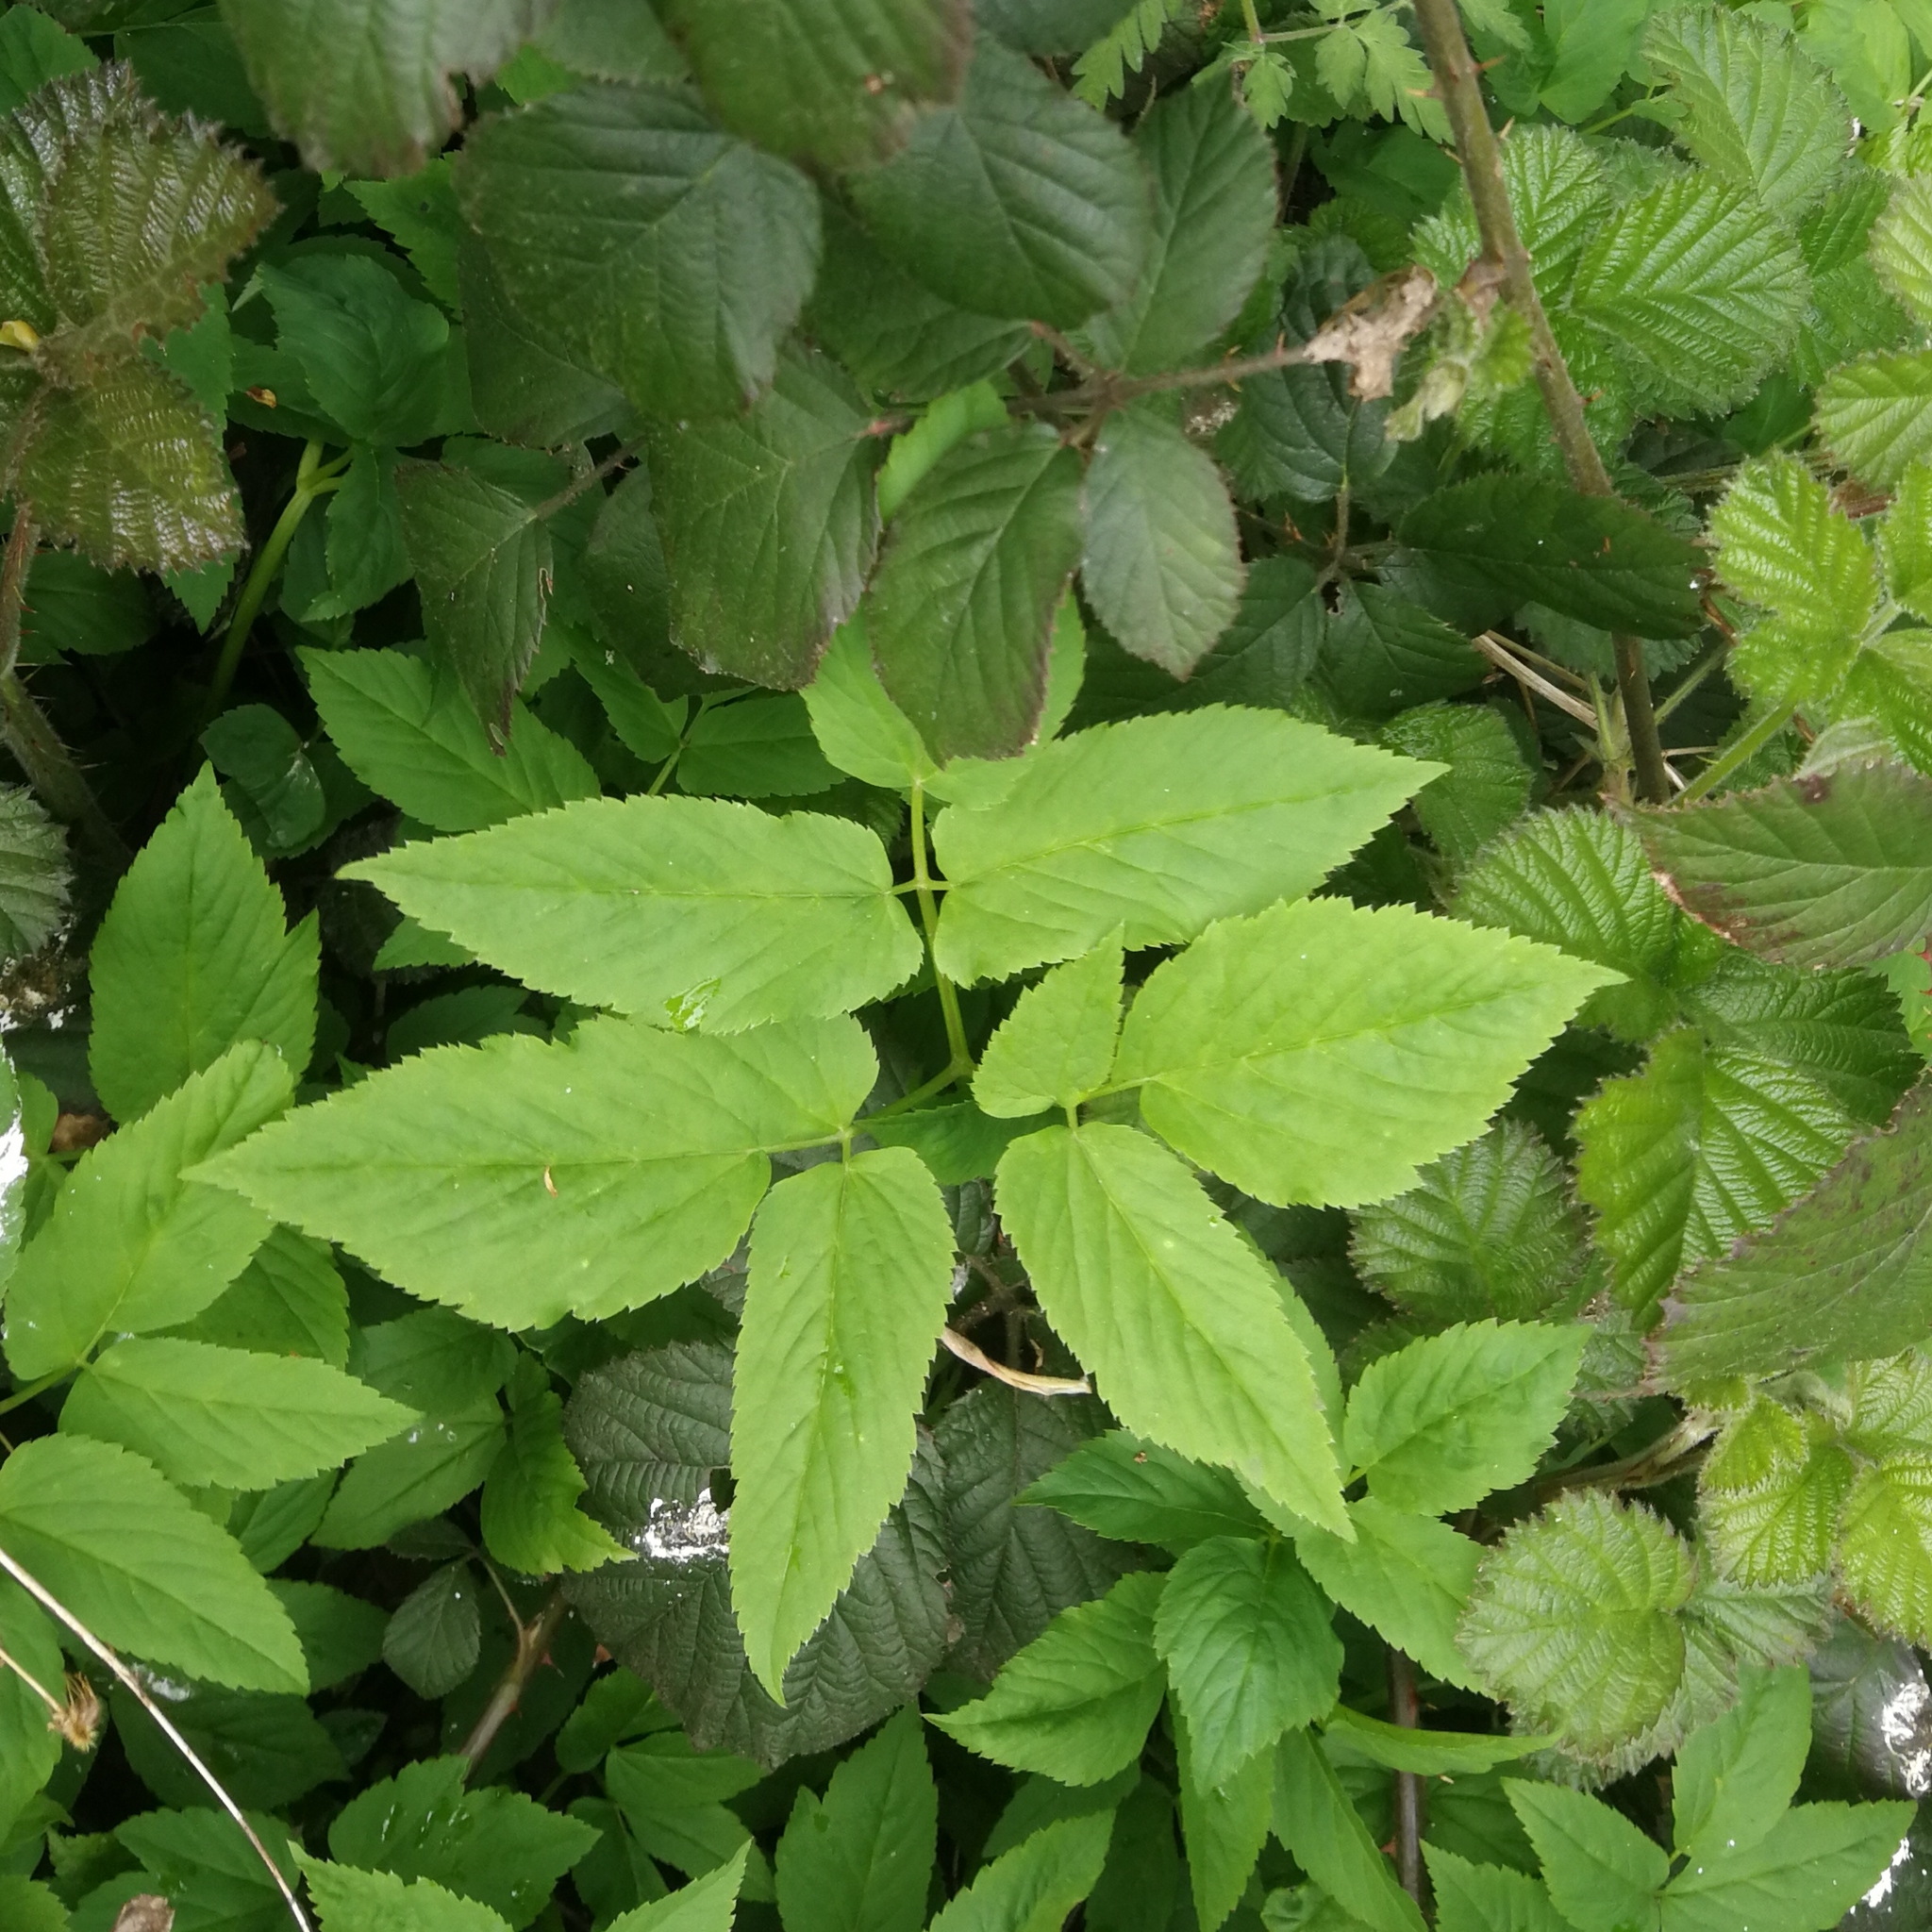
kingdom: Plantae
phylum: Tracheophyta
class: Magnoliopsida
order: Apiales
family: Apiaceae
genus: Aegopodium
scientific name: Aegopodium podagraria
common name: Ground-elder
